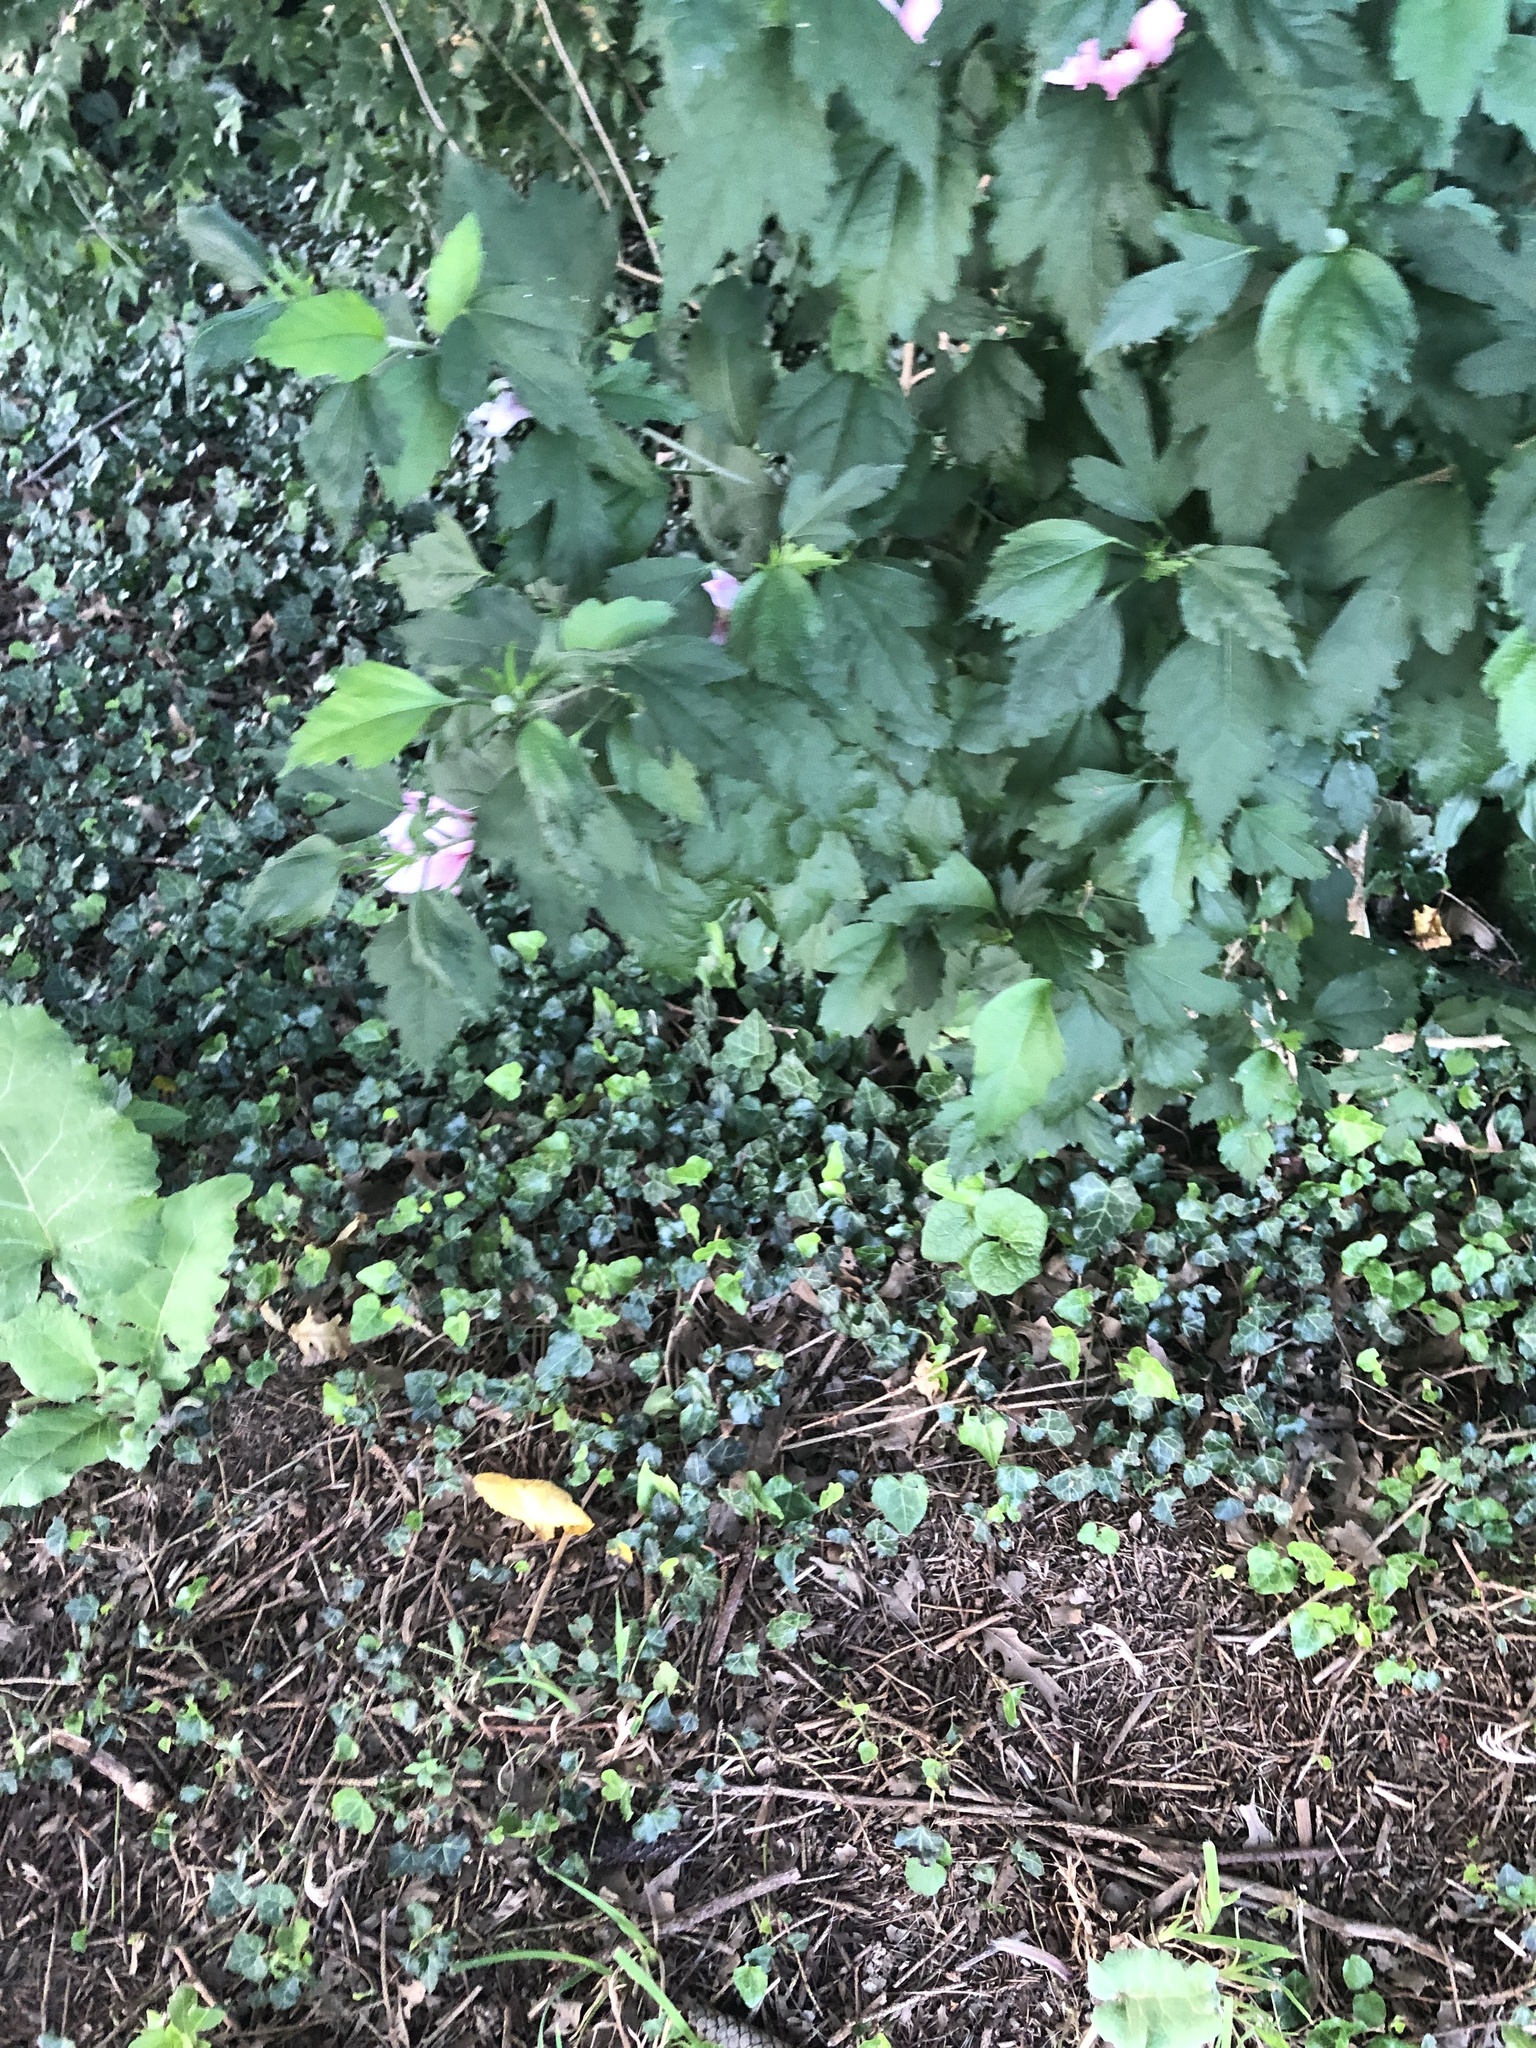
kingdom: Plantae
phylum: Tracheophyta
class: Magnoliopsida
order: Malvales
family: Malvaceae
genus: Hibiscus
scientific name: Hibiscus syriacus
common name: Syrian ketmia
